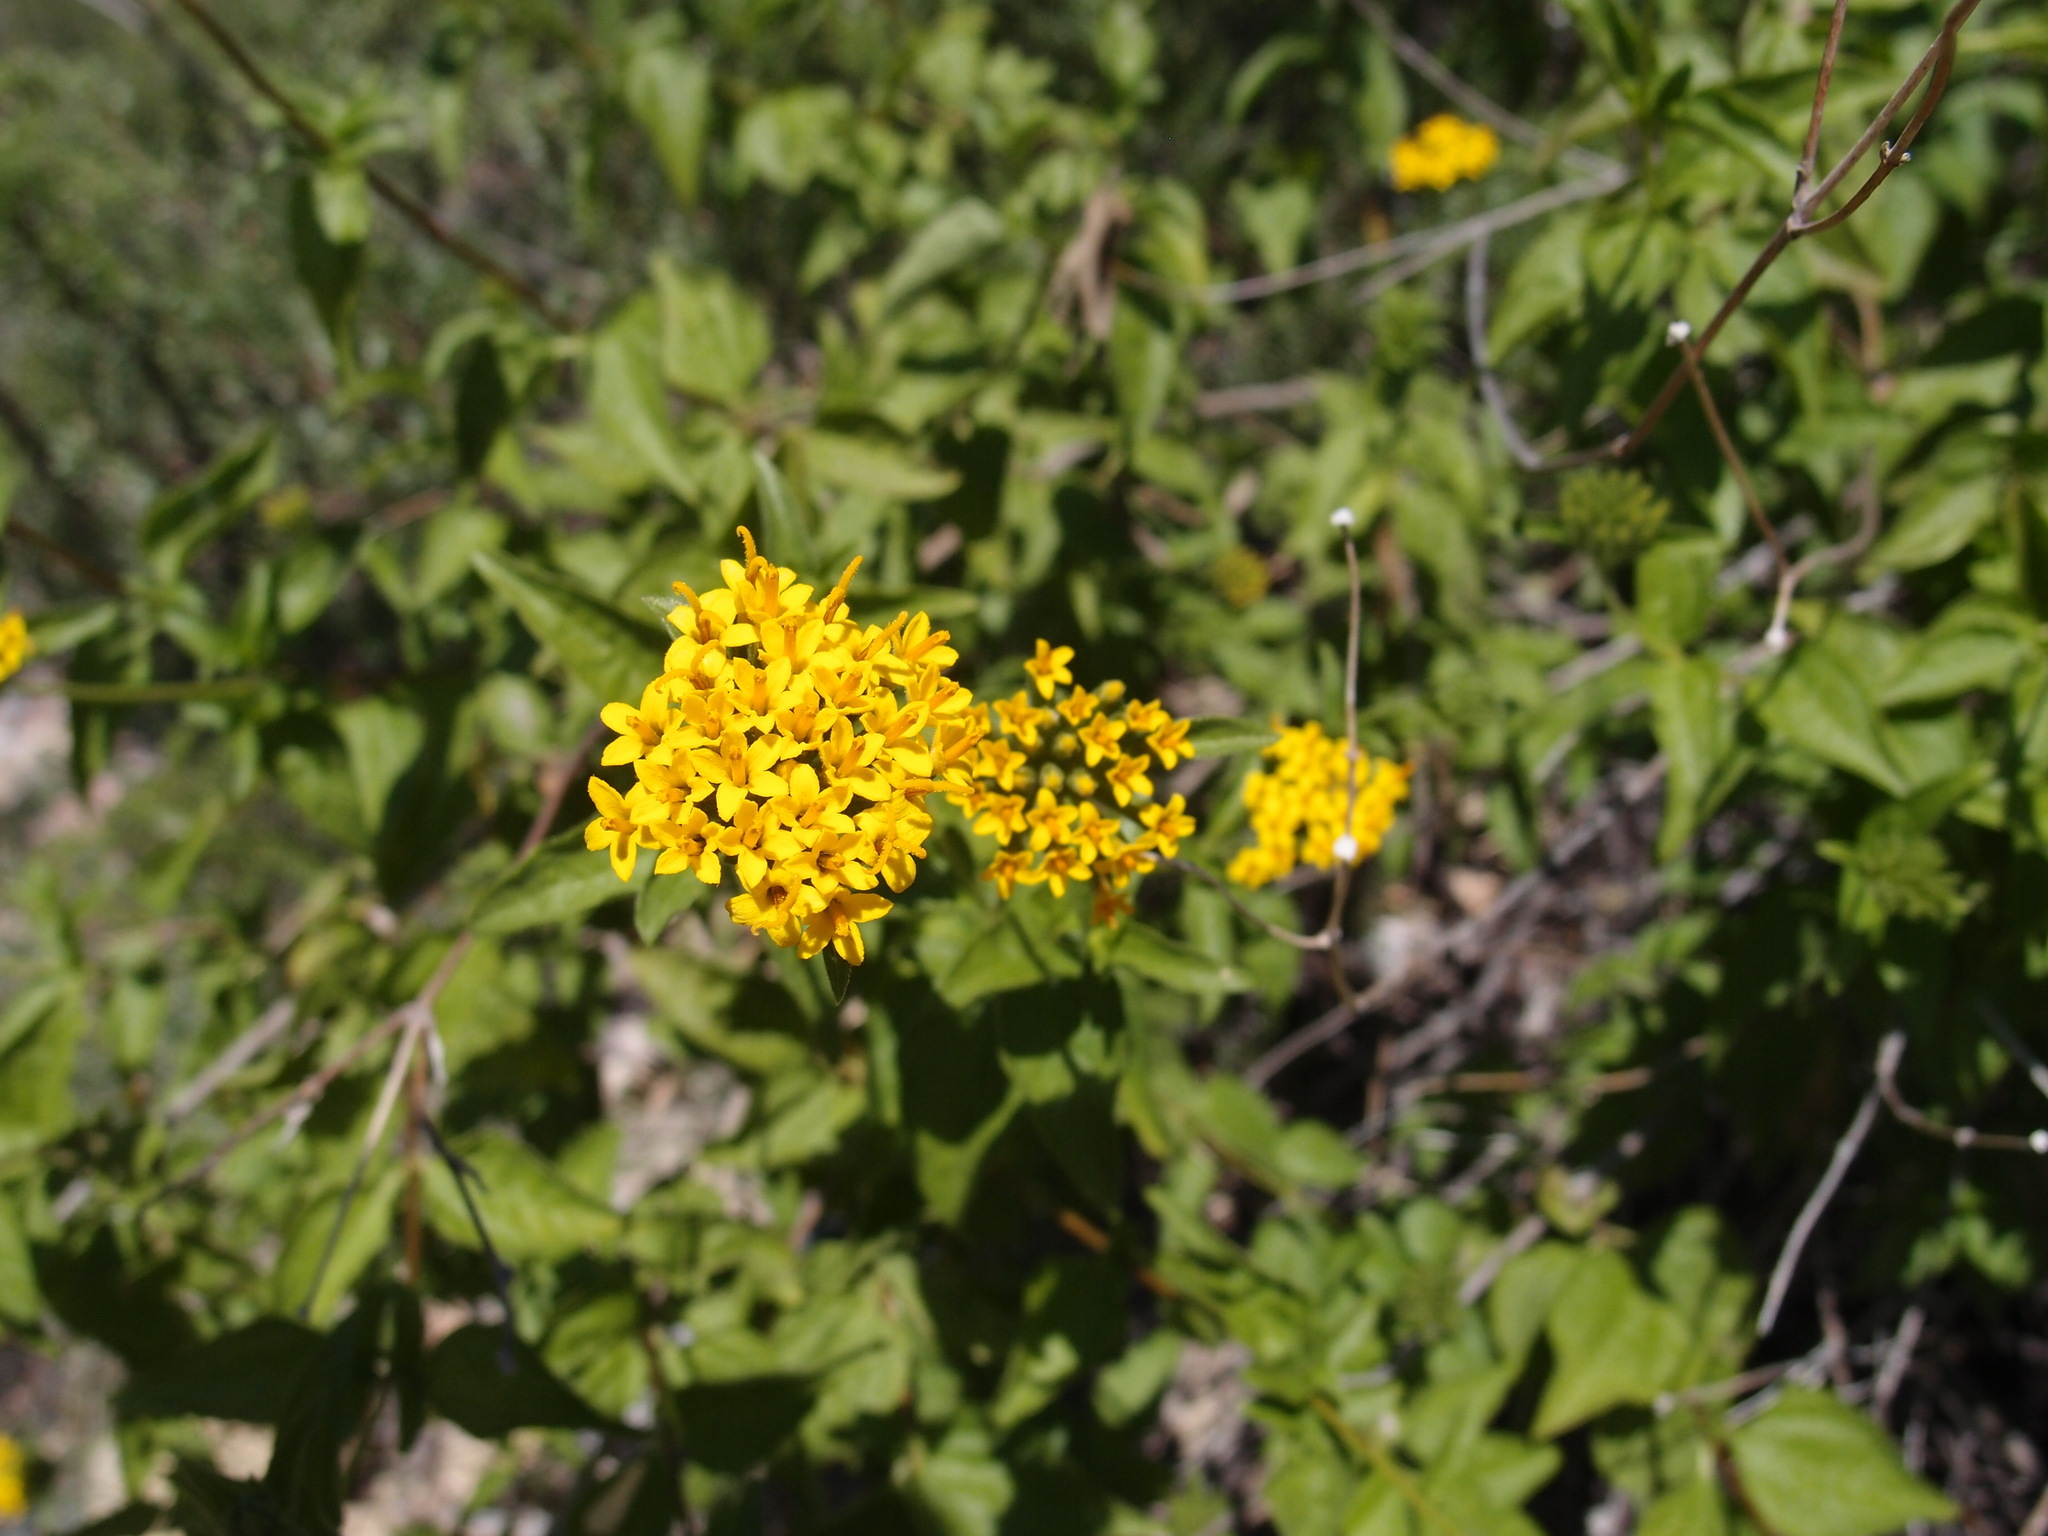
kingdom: Plantae
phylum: Tracheophyta
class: Magnoliopsida
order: Asterales
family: Asteraceae
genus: Lagascea
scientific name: Lagascea decipiens
